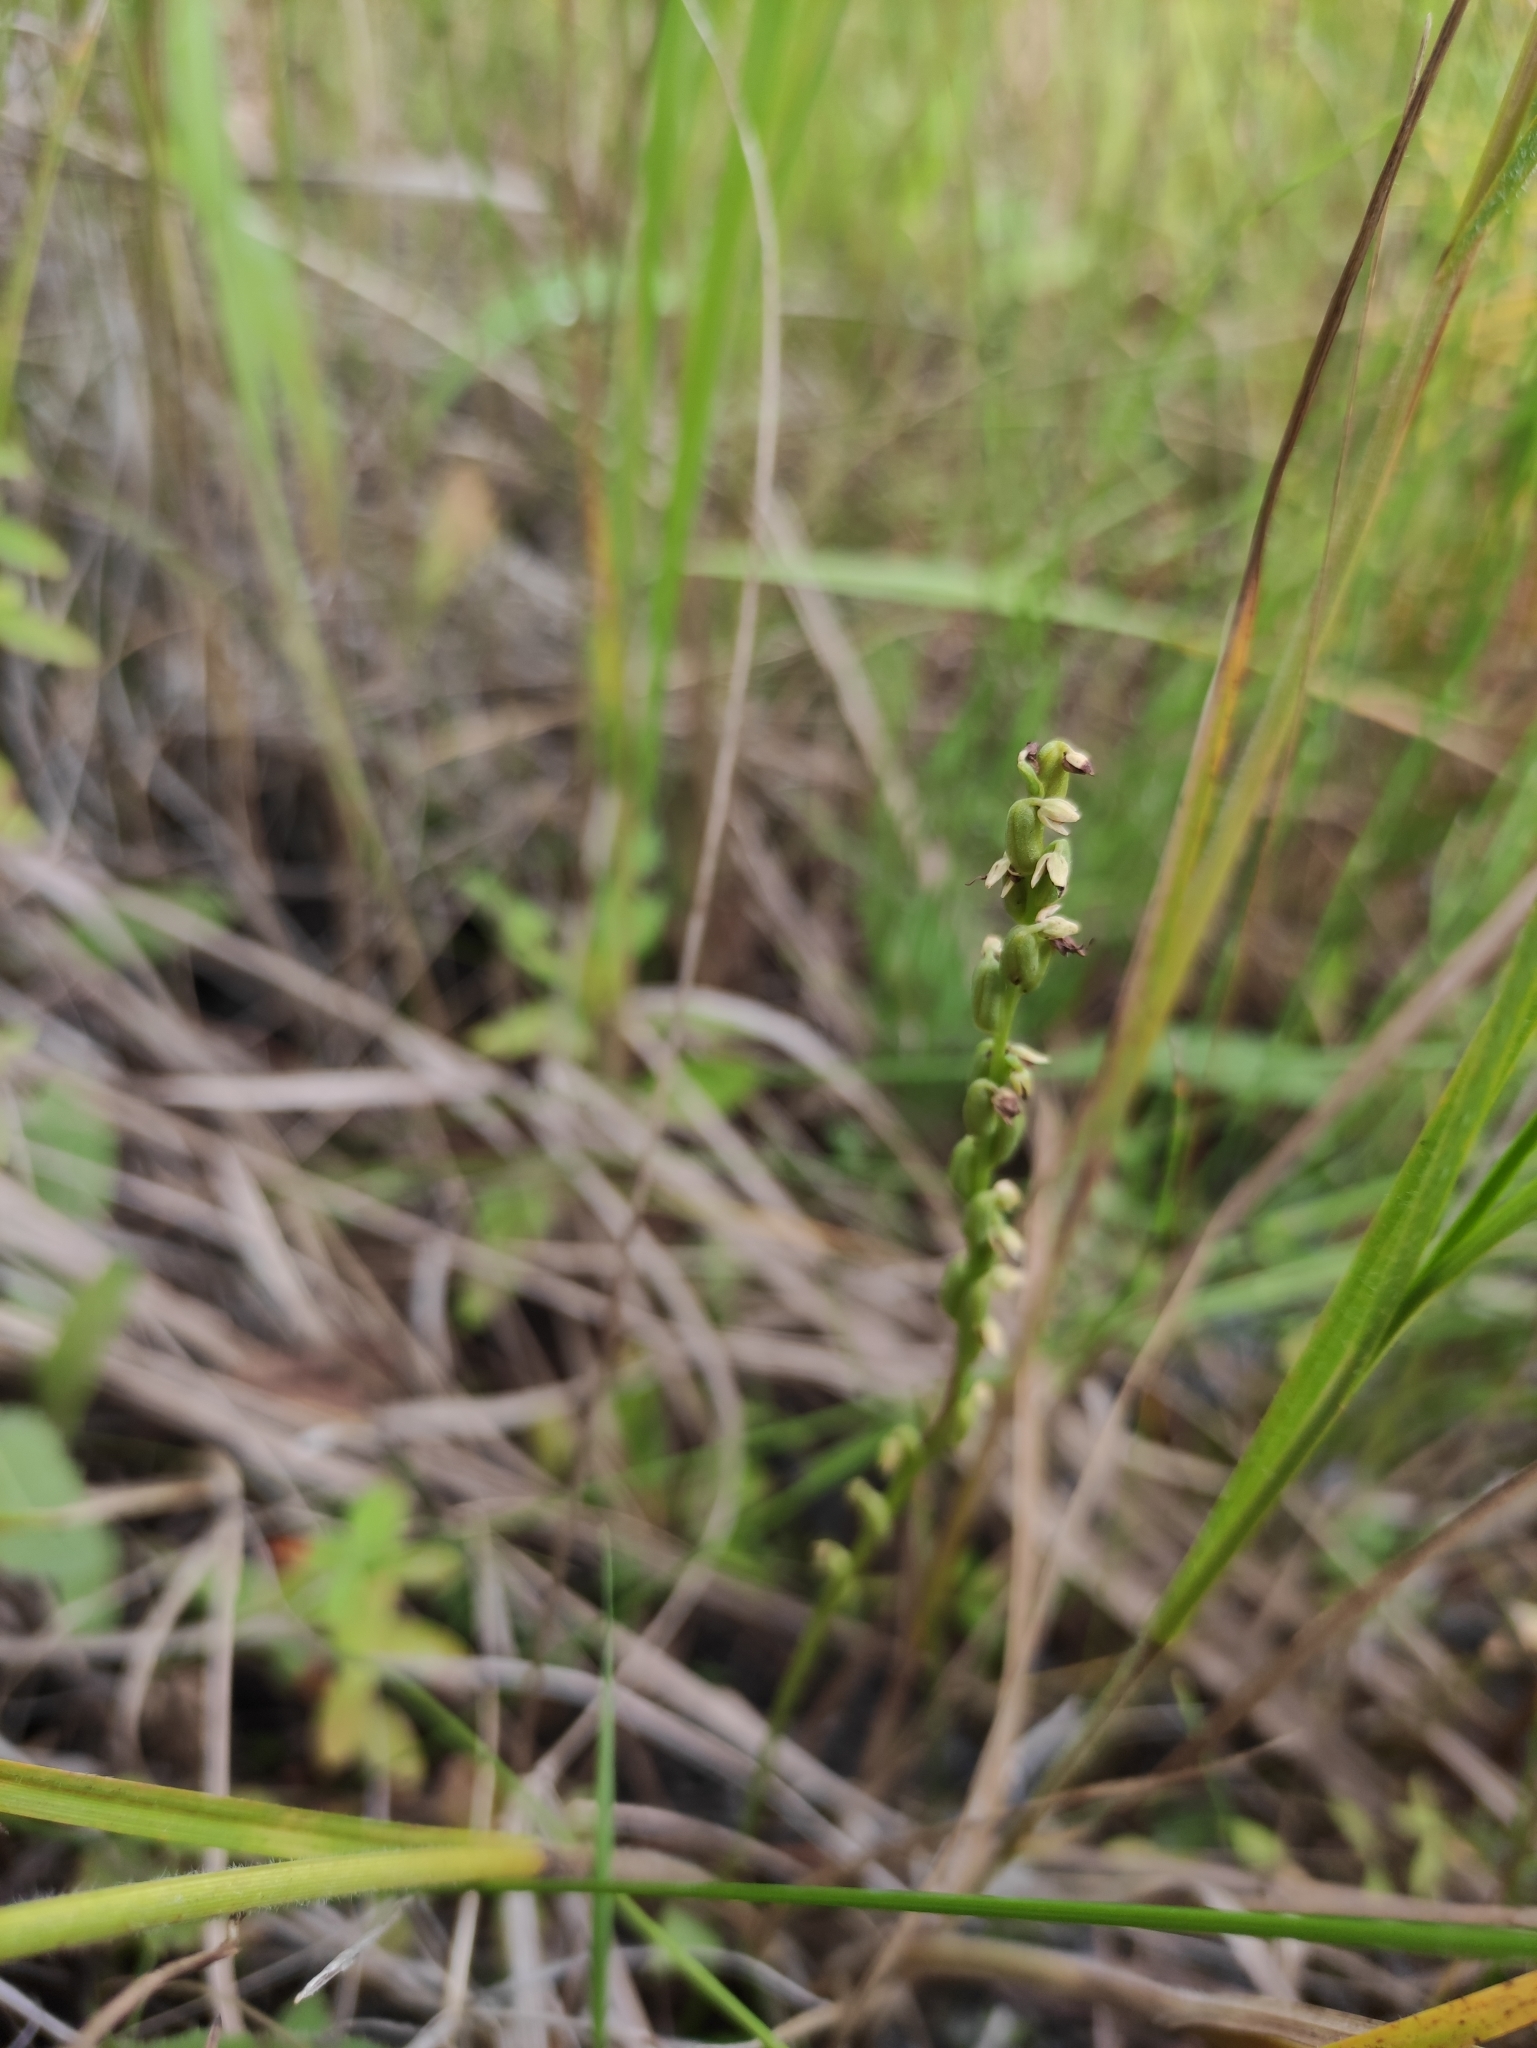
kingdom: Plantae
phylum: Tracheophyta
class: Liliopsida
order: Asparagales
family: Orchidaceae
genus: Herminium
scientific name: Herminium monorchis
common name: Musk orchid
